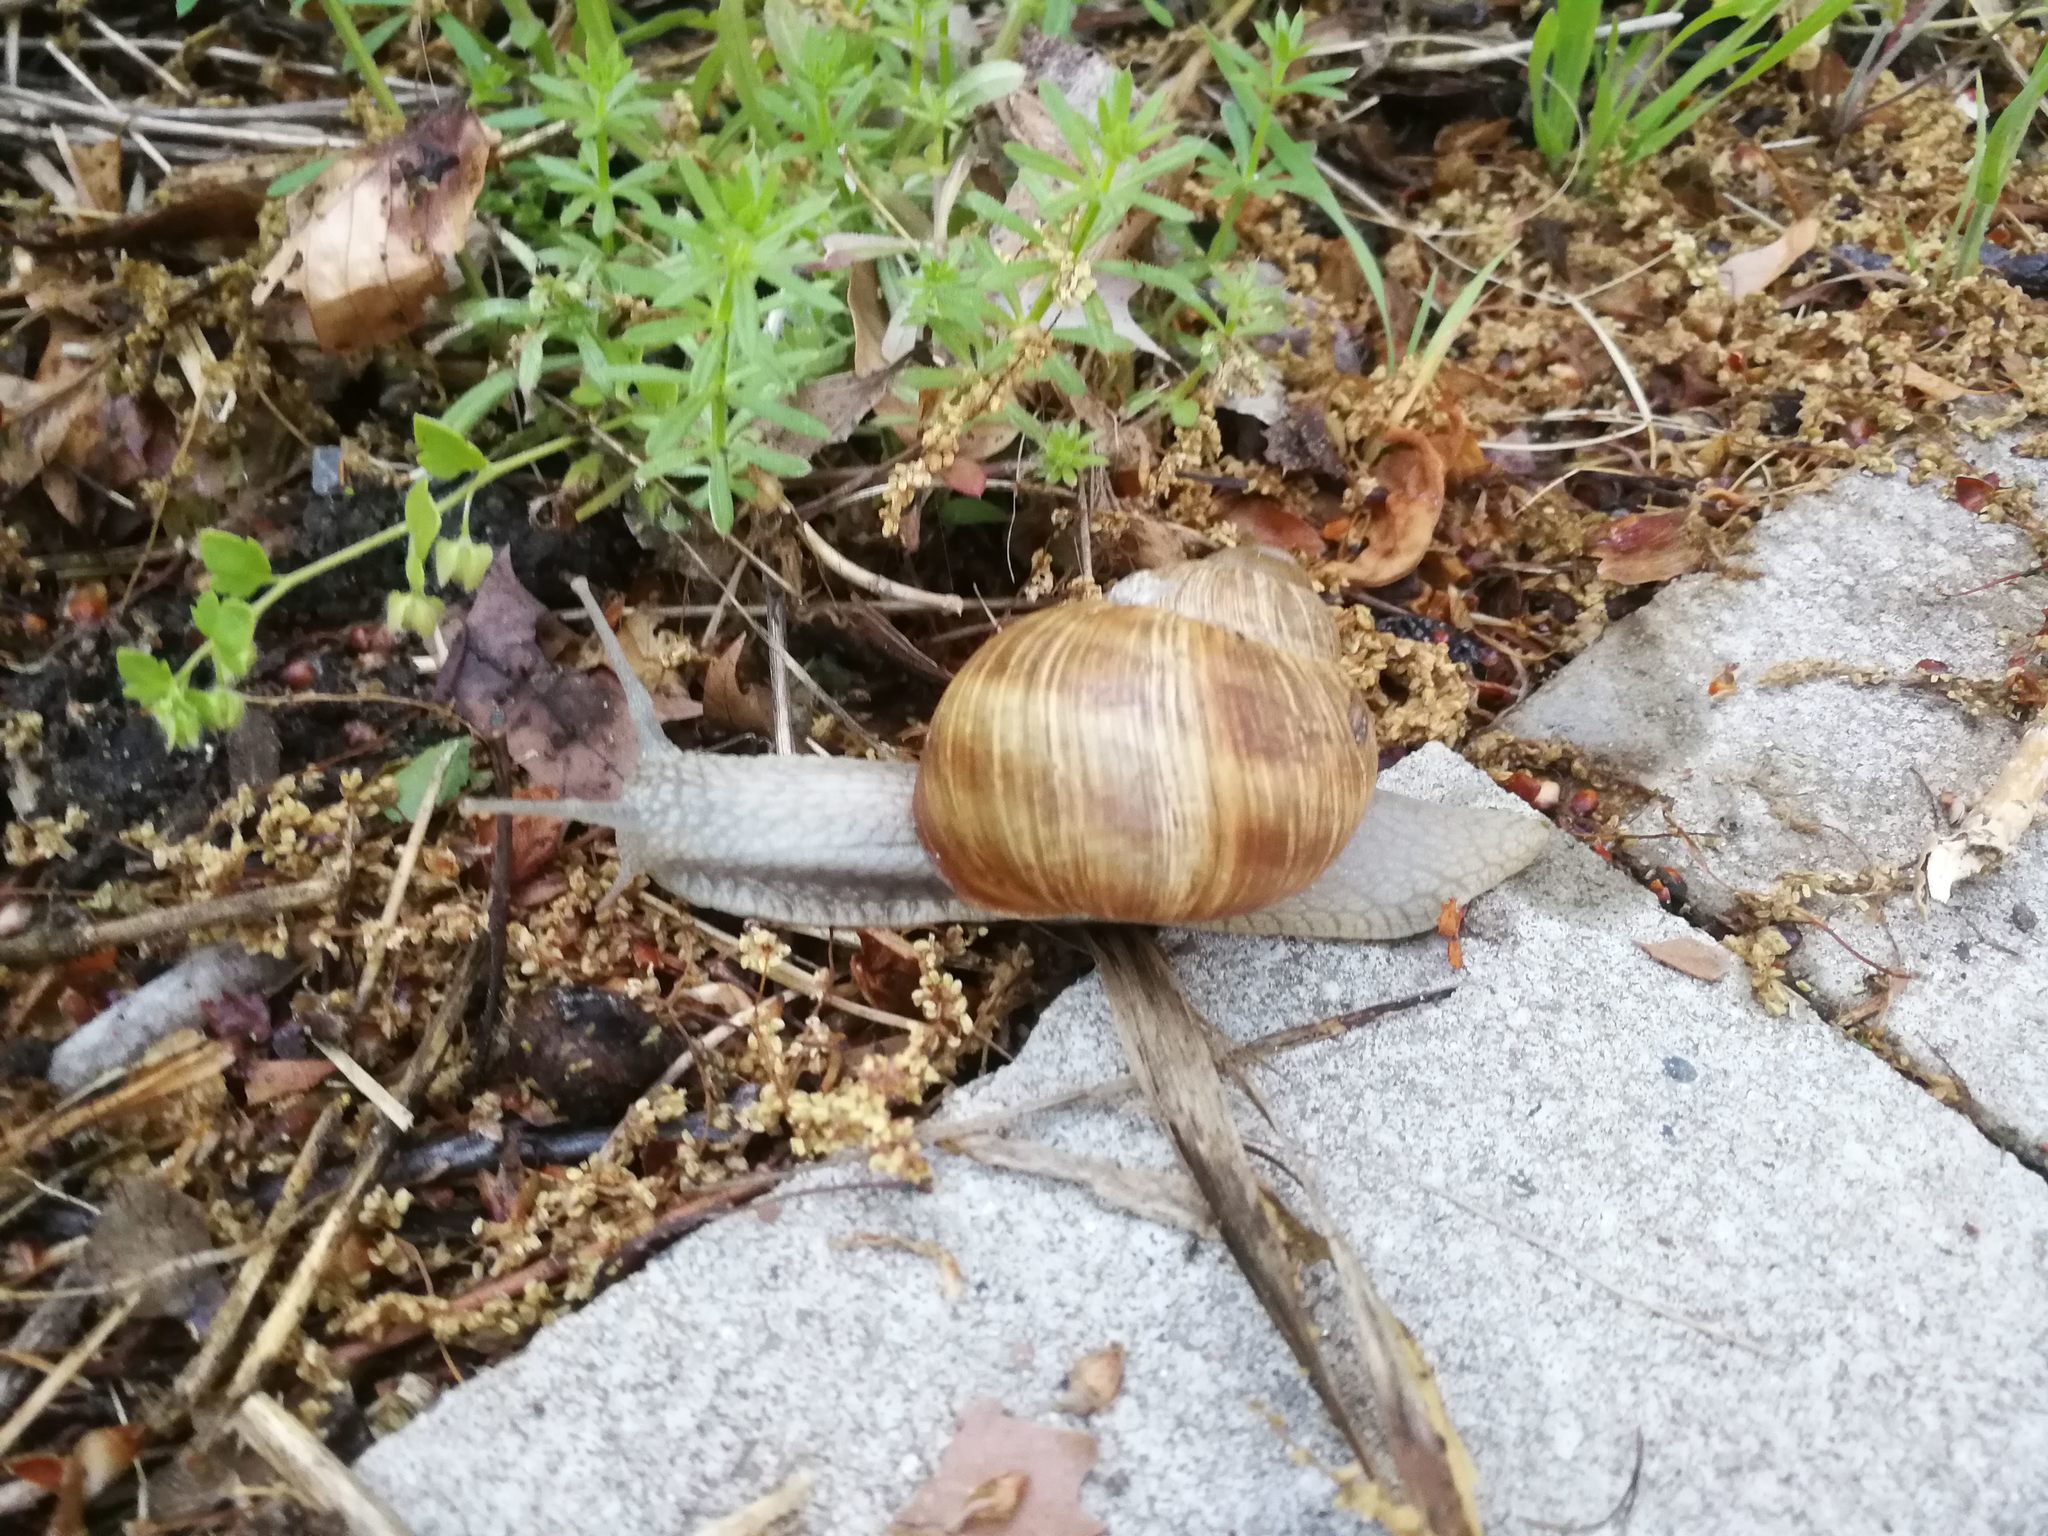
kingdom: Animalia
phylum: Mollusca
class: Gastropoda
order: Stylommatophora
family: Helicidae
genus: Helix
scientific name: Helix pomatia
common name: Roman snail
